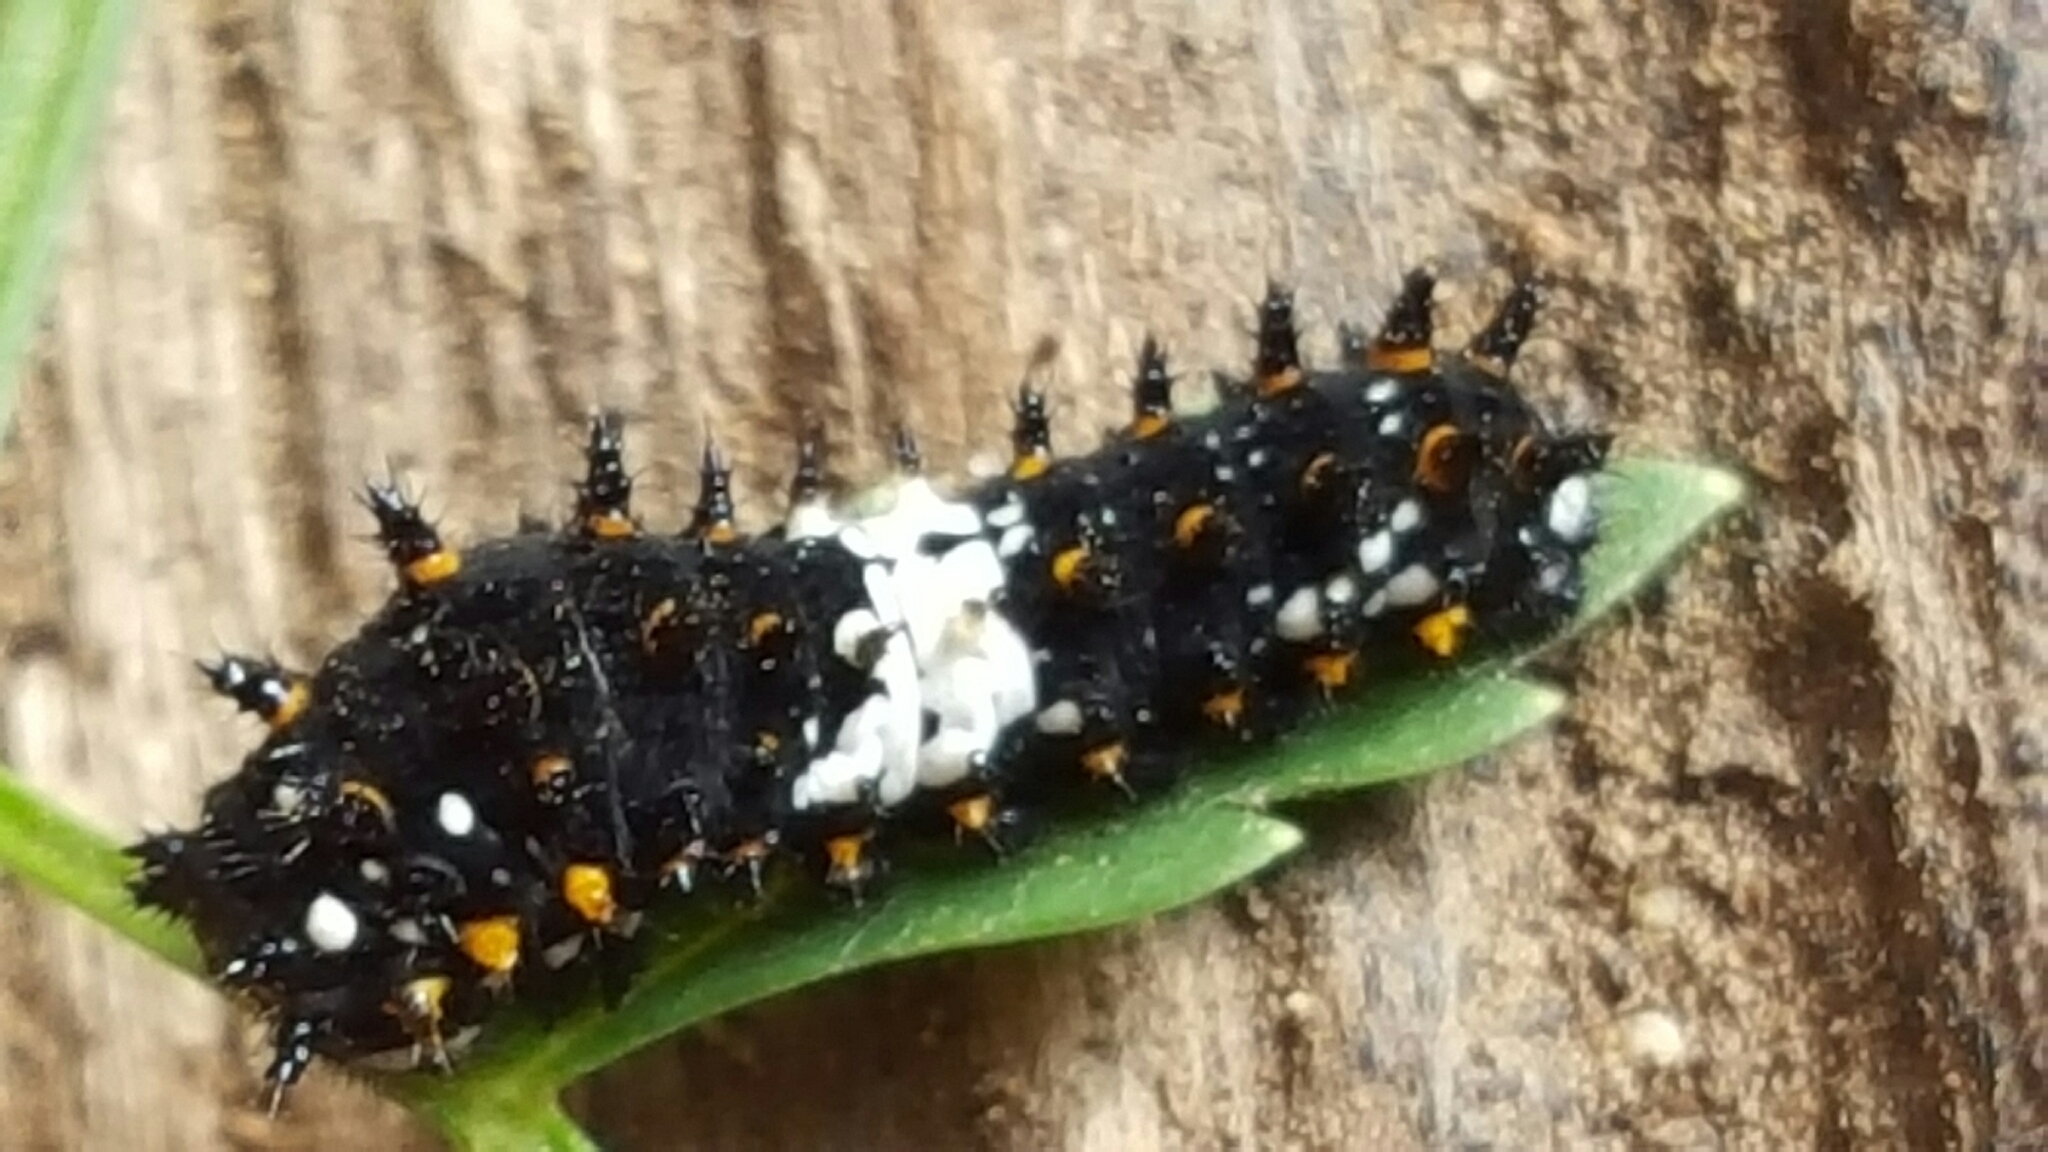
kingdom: Animalia
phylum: Arthropoda
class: Insecta
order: Lepidoptera
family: Papilionidae
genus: Papilio
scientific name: Papilio zelicaon
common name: Anise swallowtail
